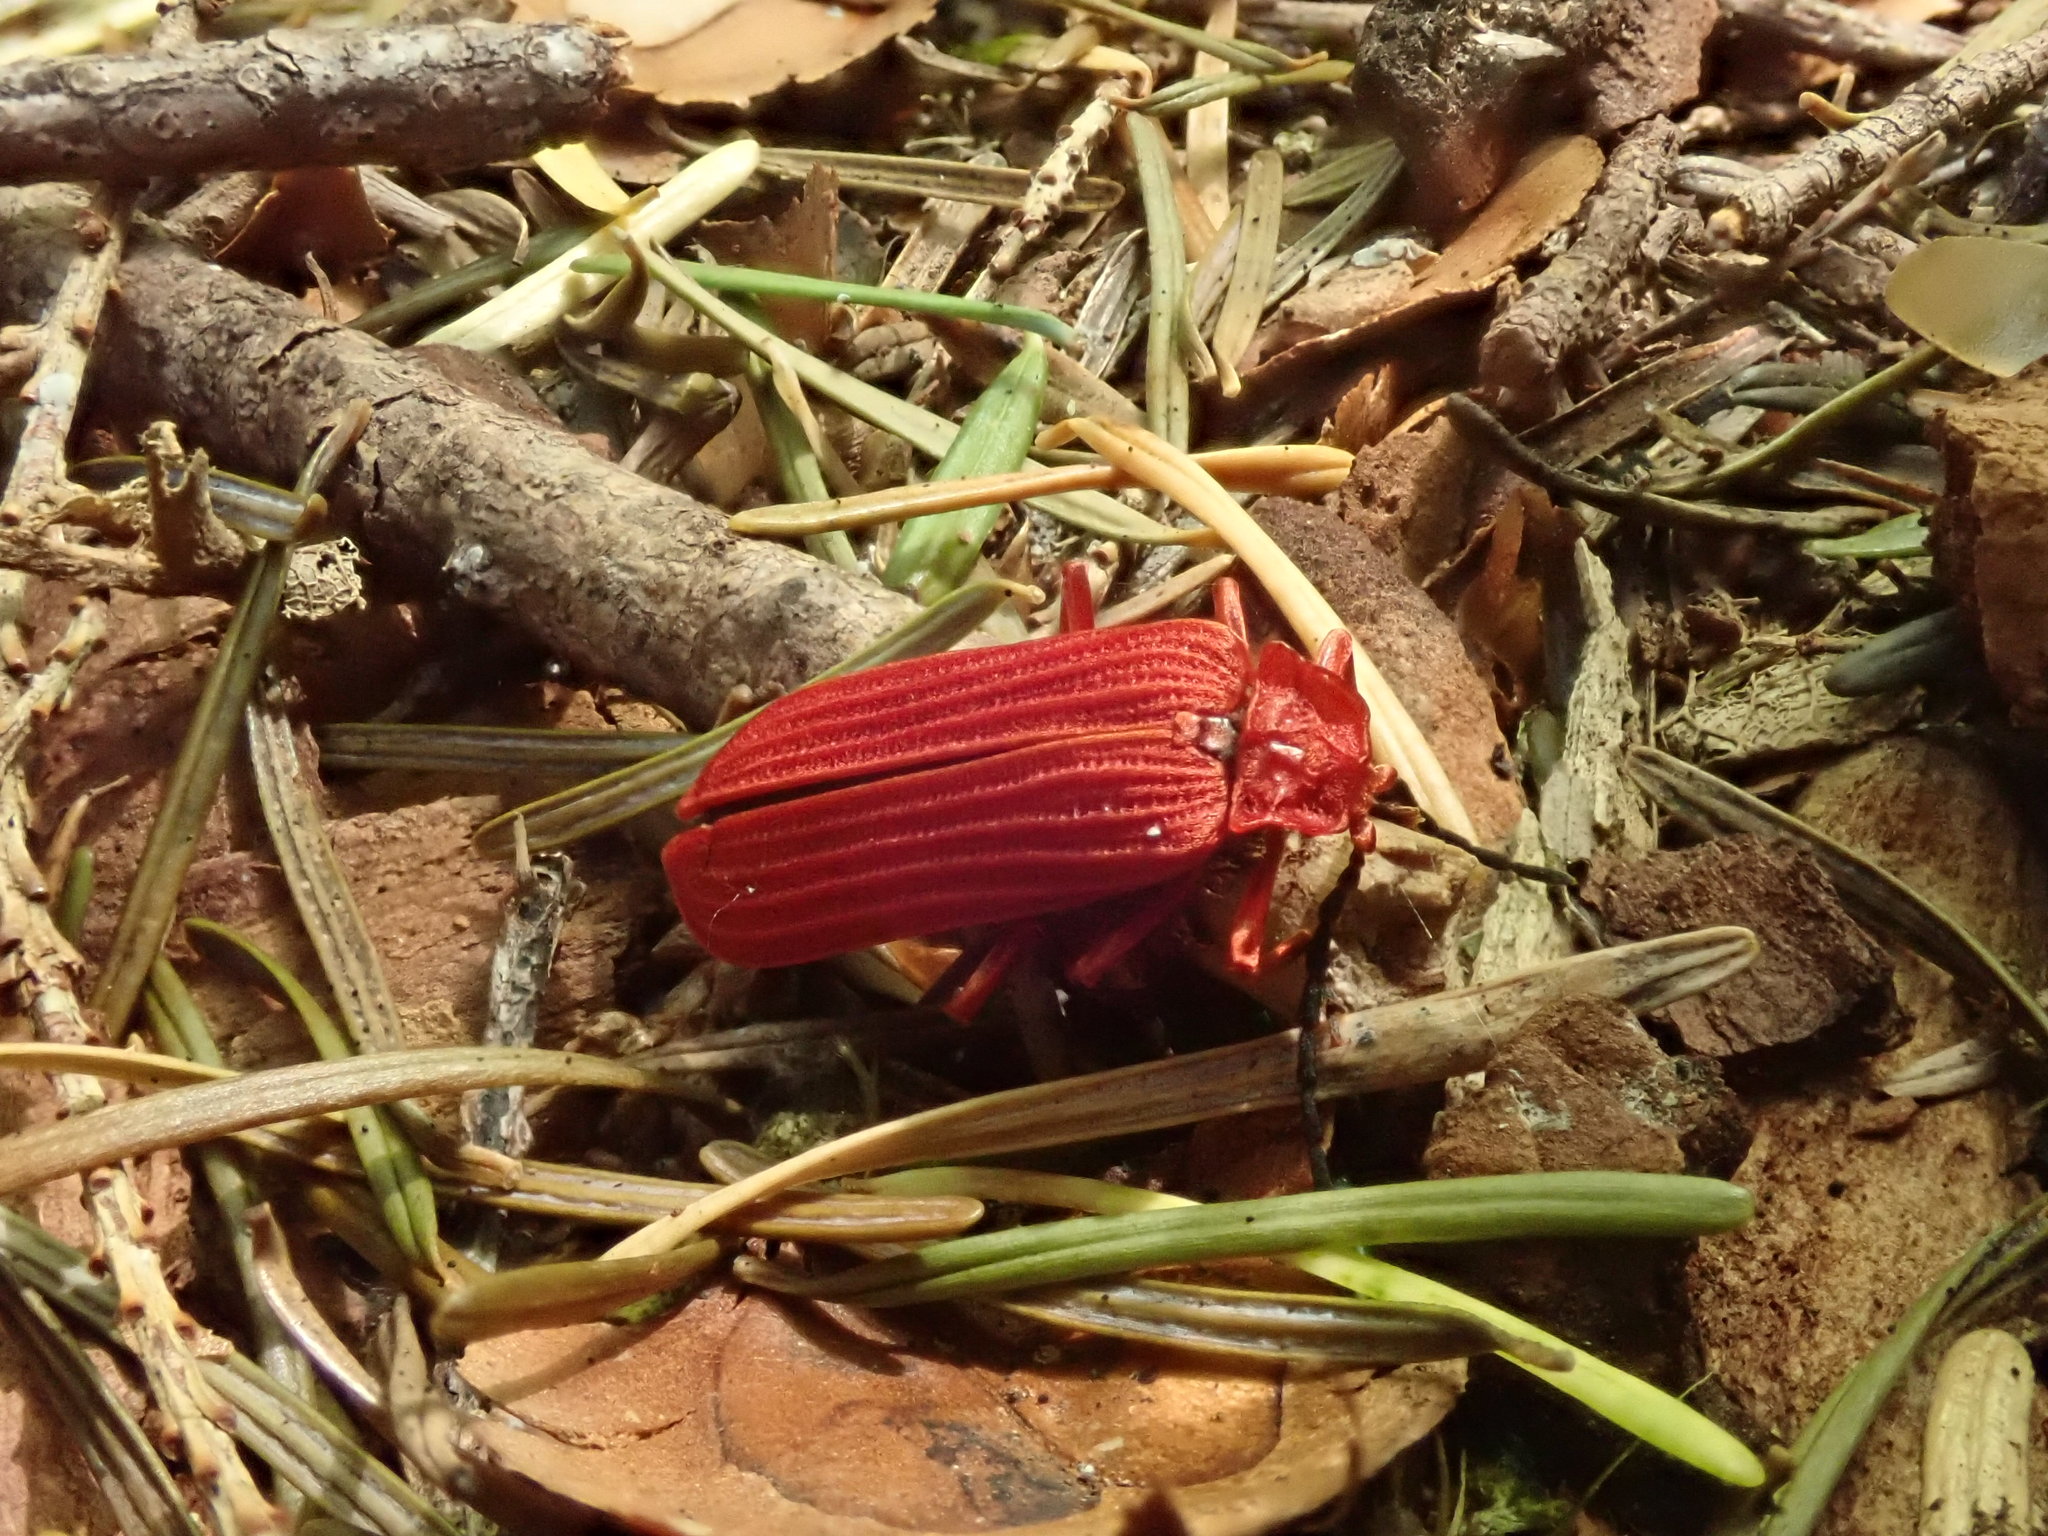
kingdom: Animalia
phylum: Arthropoda
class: Insecta
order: Coleoptera
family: Lycidae
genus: Punicealis
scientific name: Punicealis hamata
